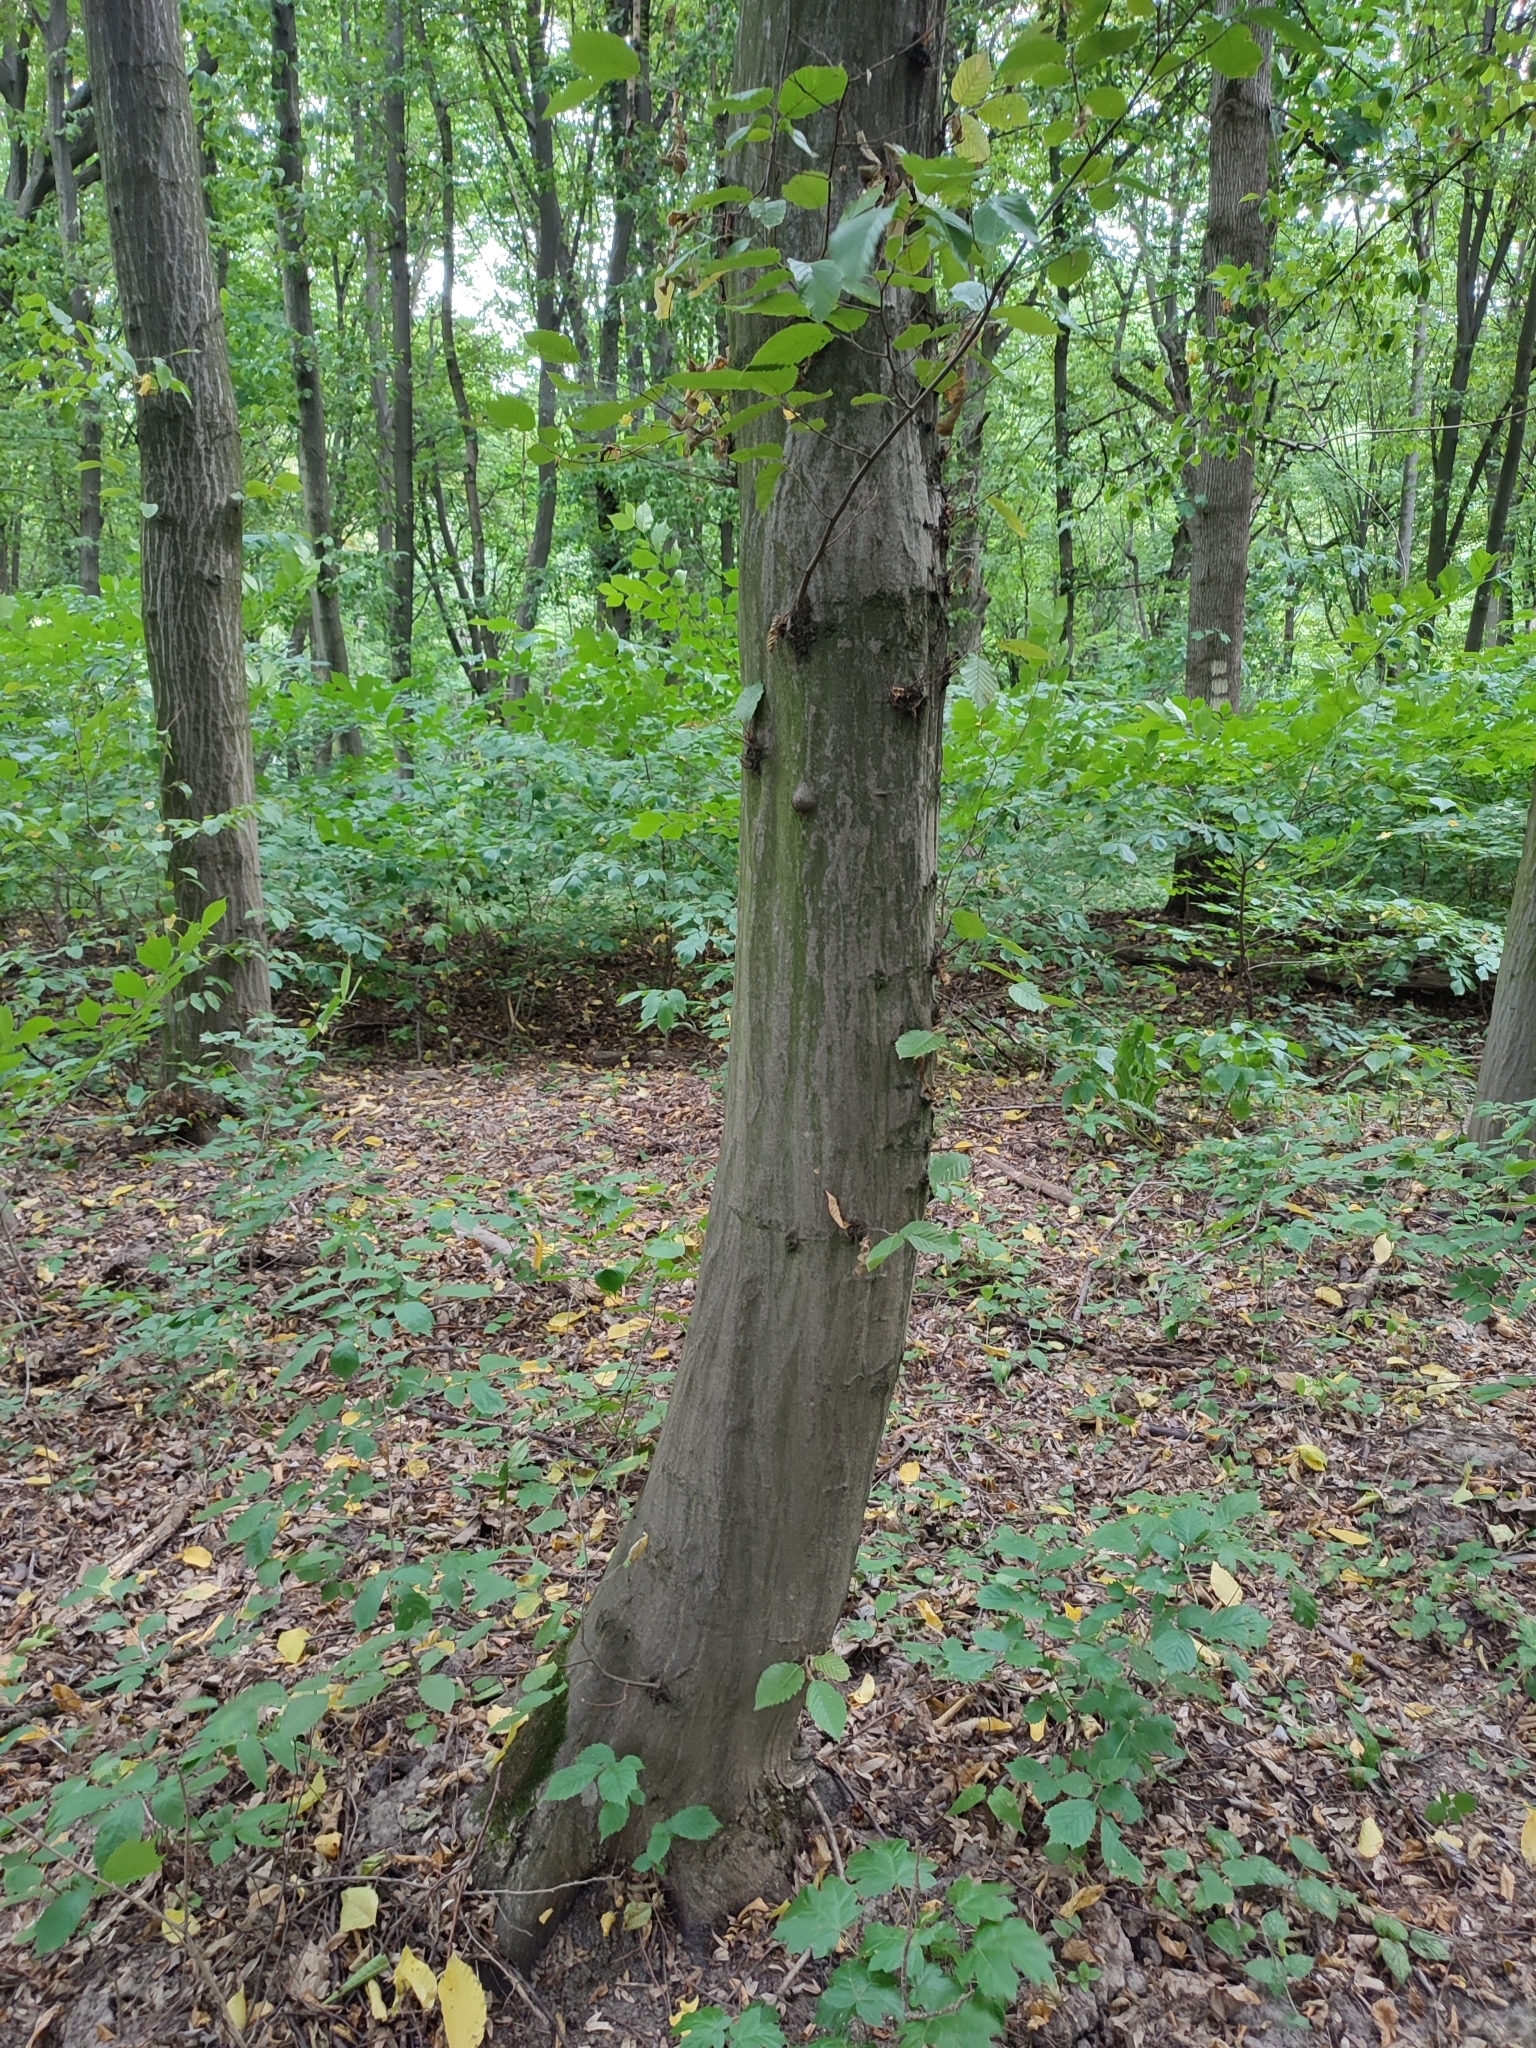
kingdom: Plantae
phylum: Tracheophyta
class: Magnoliopsida
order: Fagales
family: Betulaceae
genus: Carpinus
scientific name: Carpinus betulus
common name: Hornbeam
